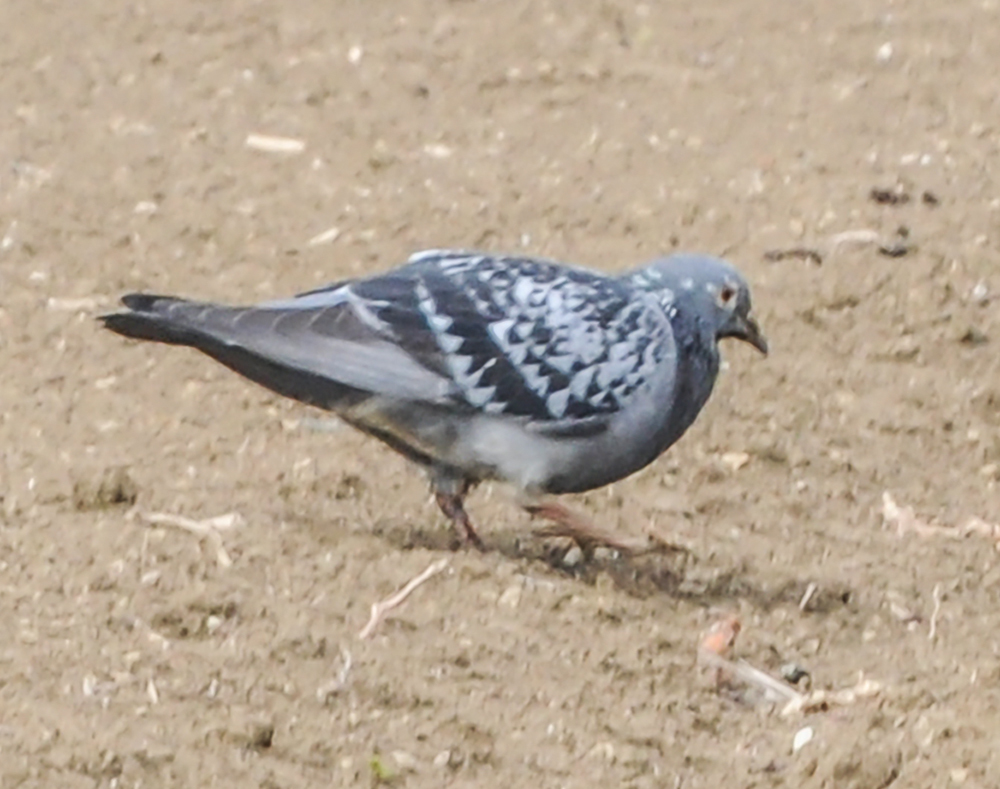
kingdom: Animalia
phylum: Chordata
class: Aves
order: Columbiformes
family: Columbidae
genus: Columba
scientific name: Columba livia
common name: Rock pigeon
